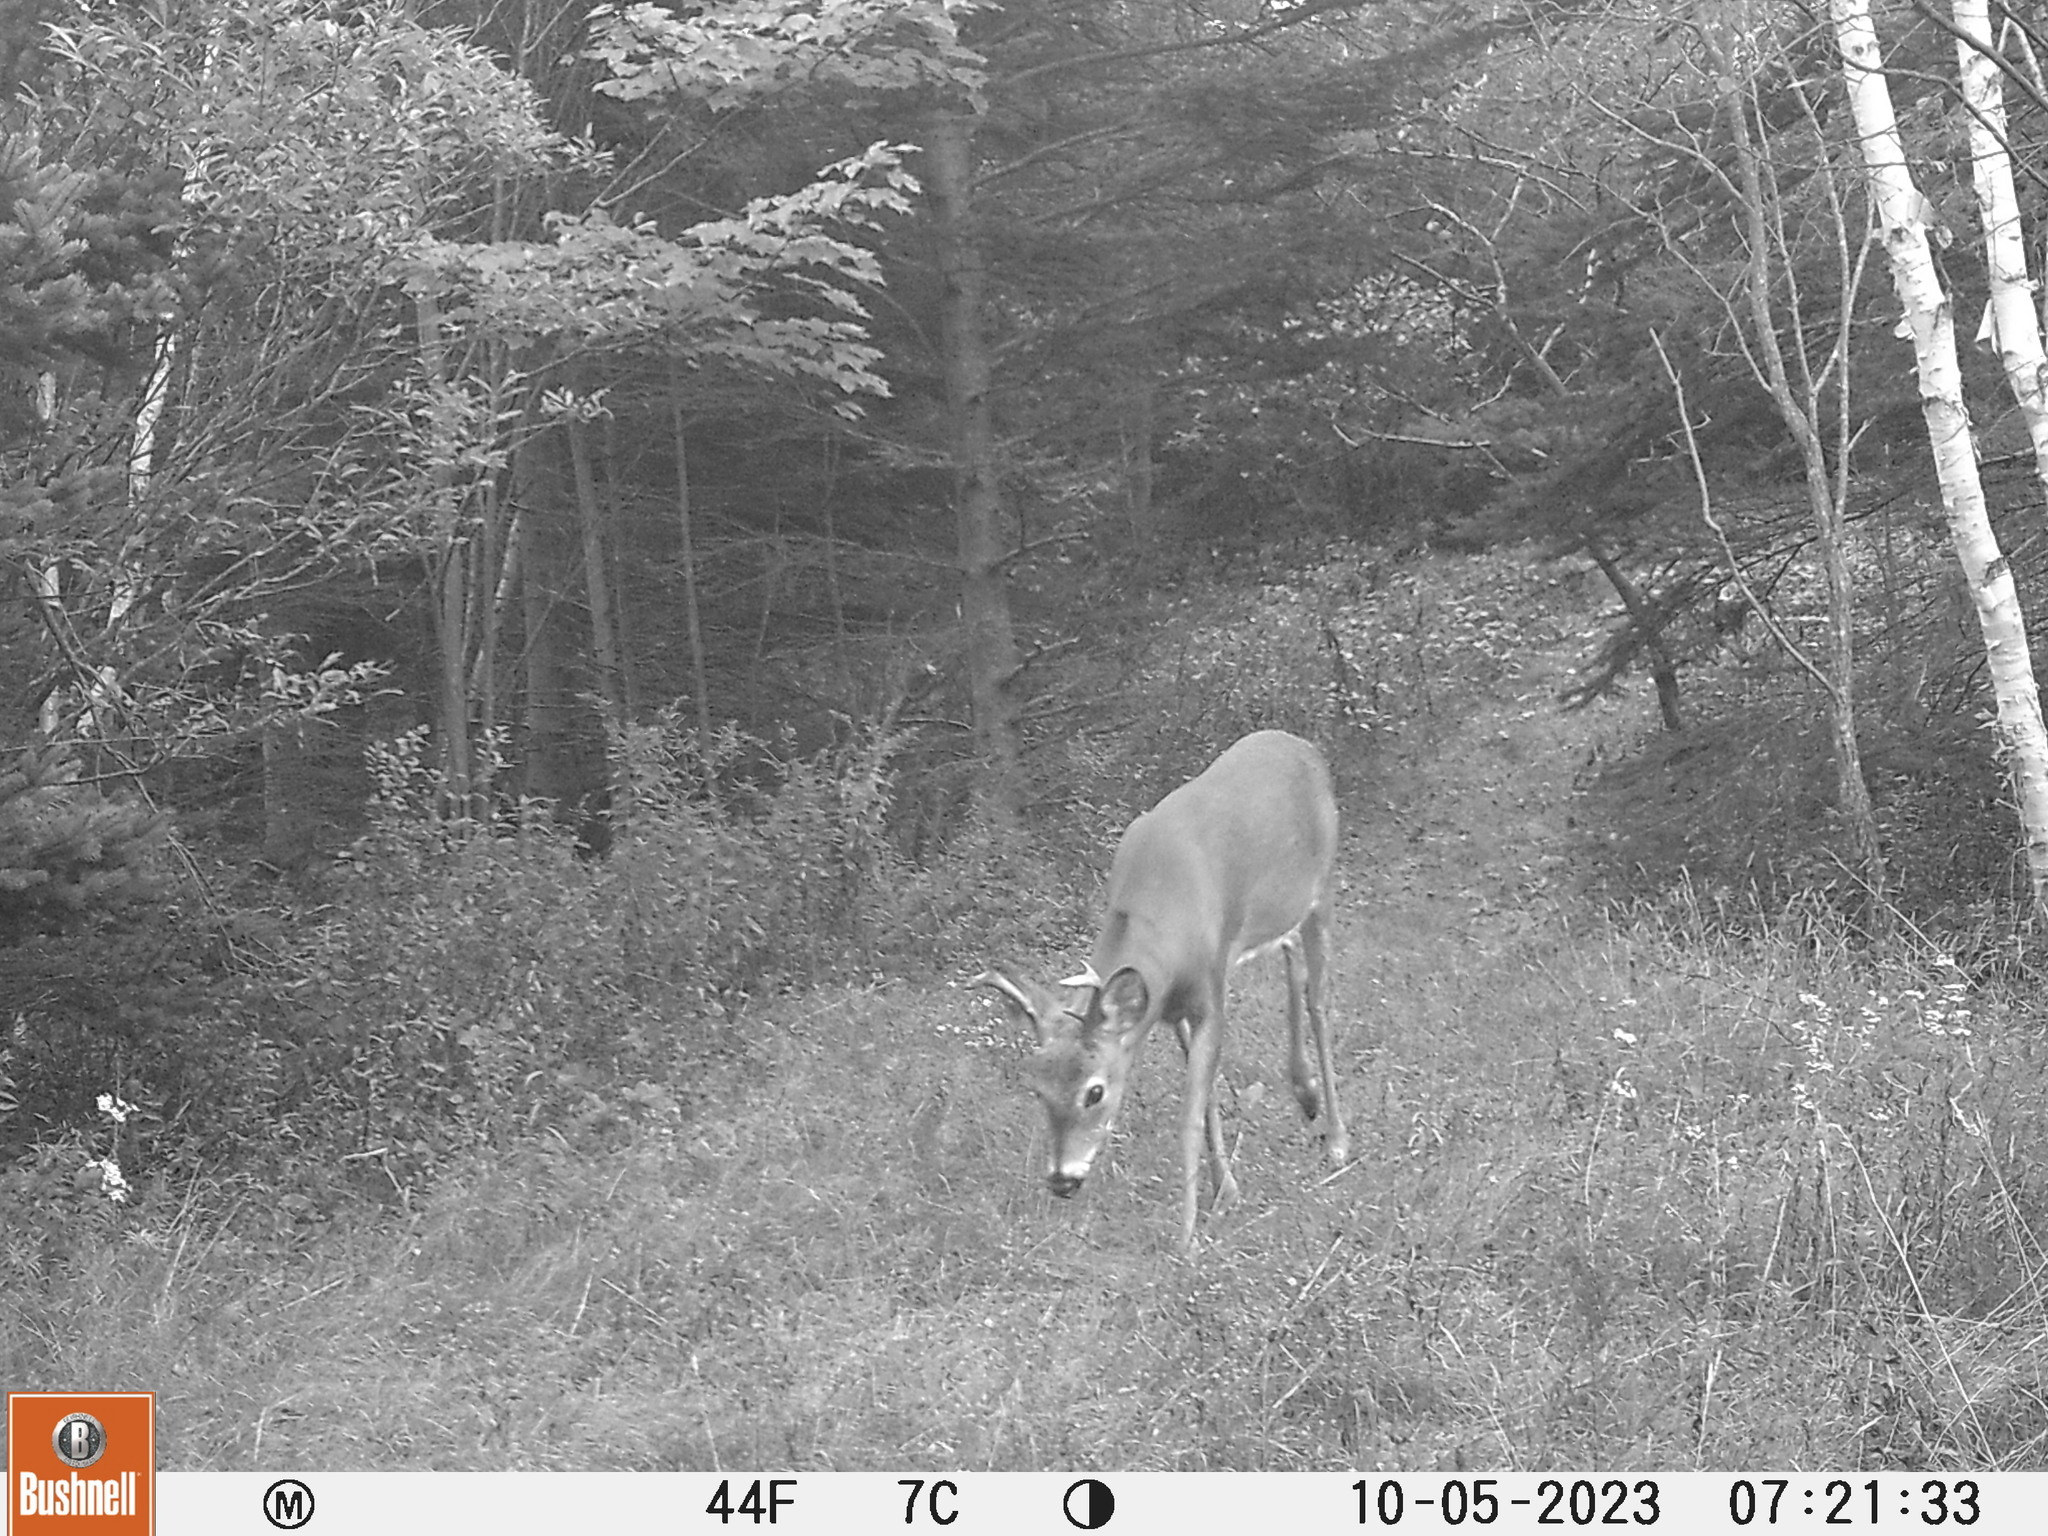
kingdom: Animalia
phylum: Chordata
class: Mammalia
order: Artiodactyla
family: Cervidae
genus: Odocoileus
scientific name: Odocoileus virginianus
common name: White-tailed deer
